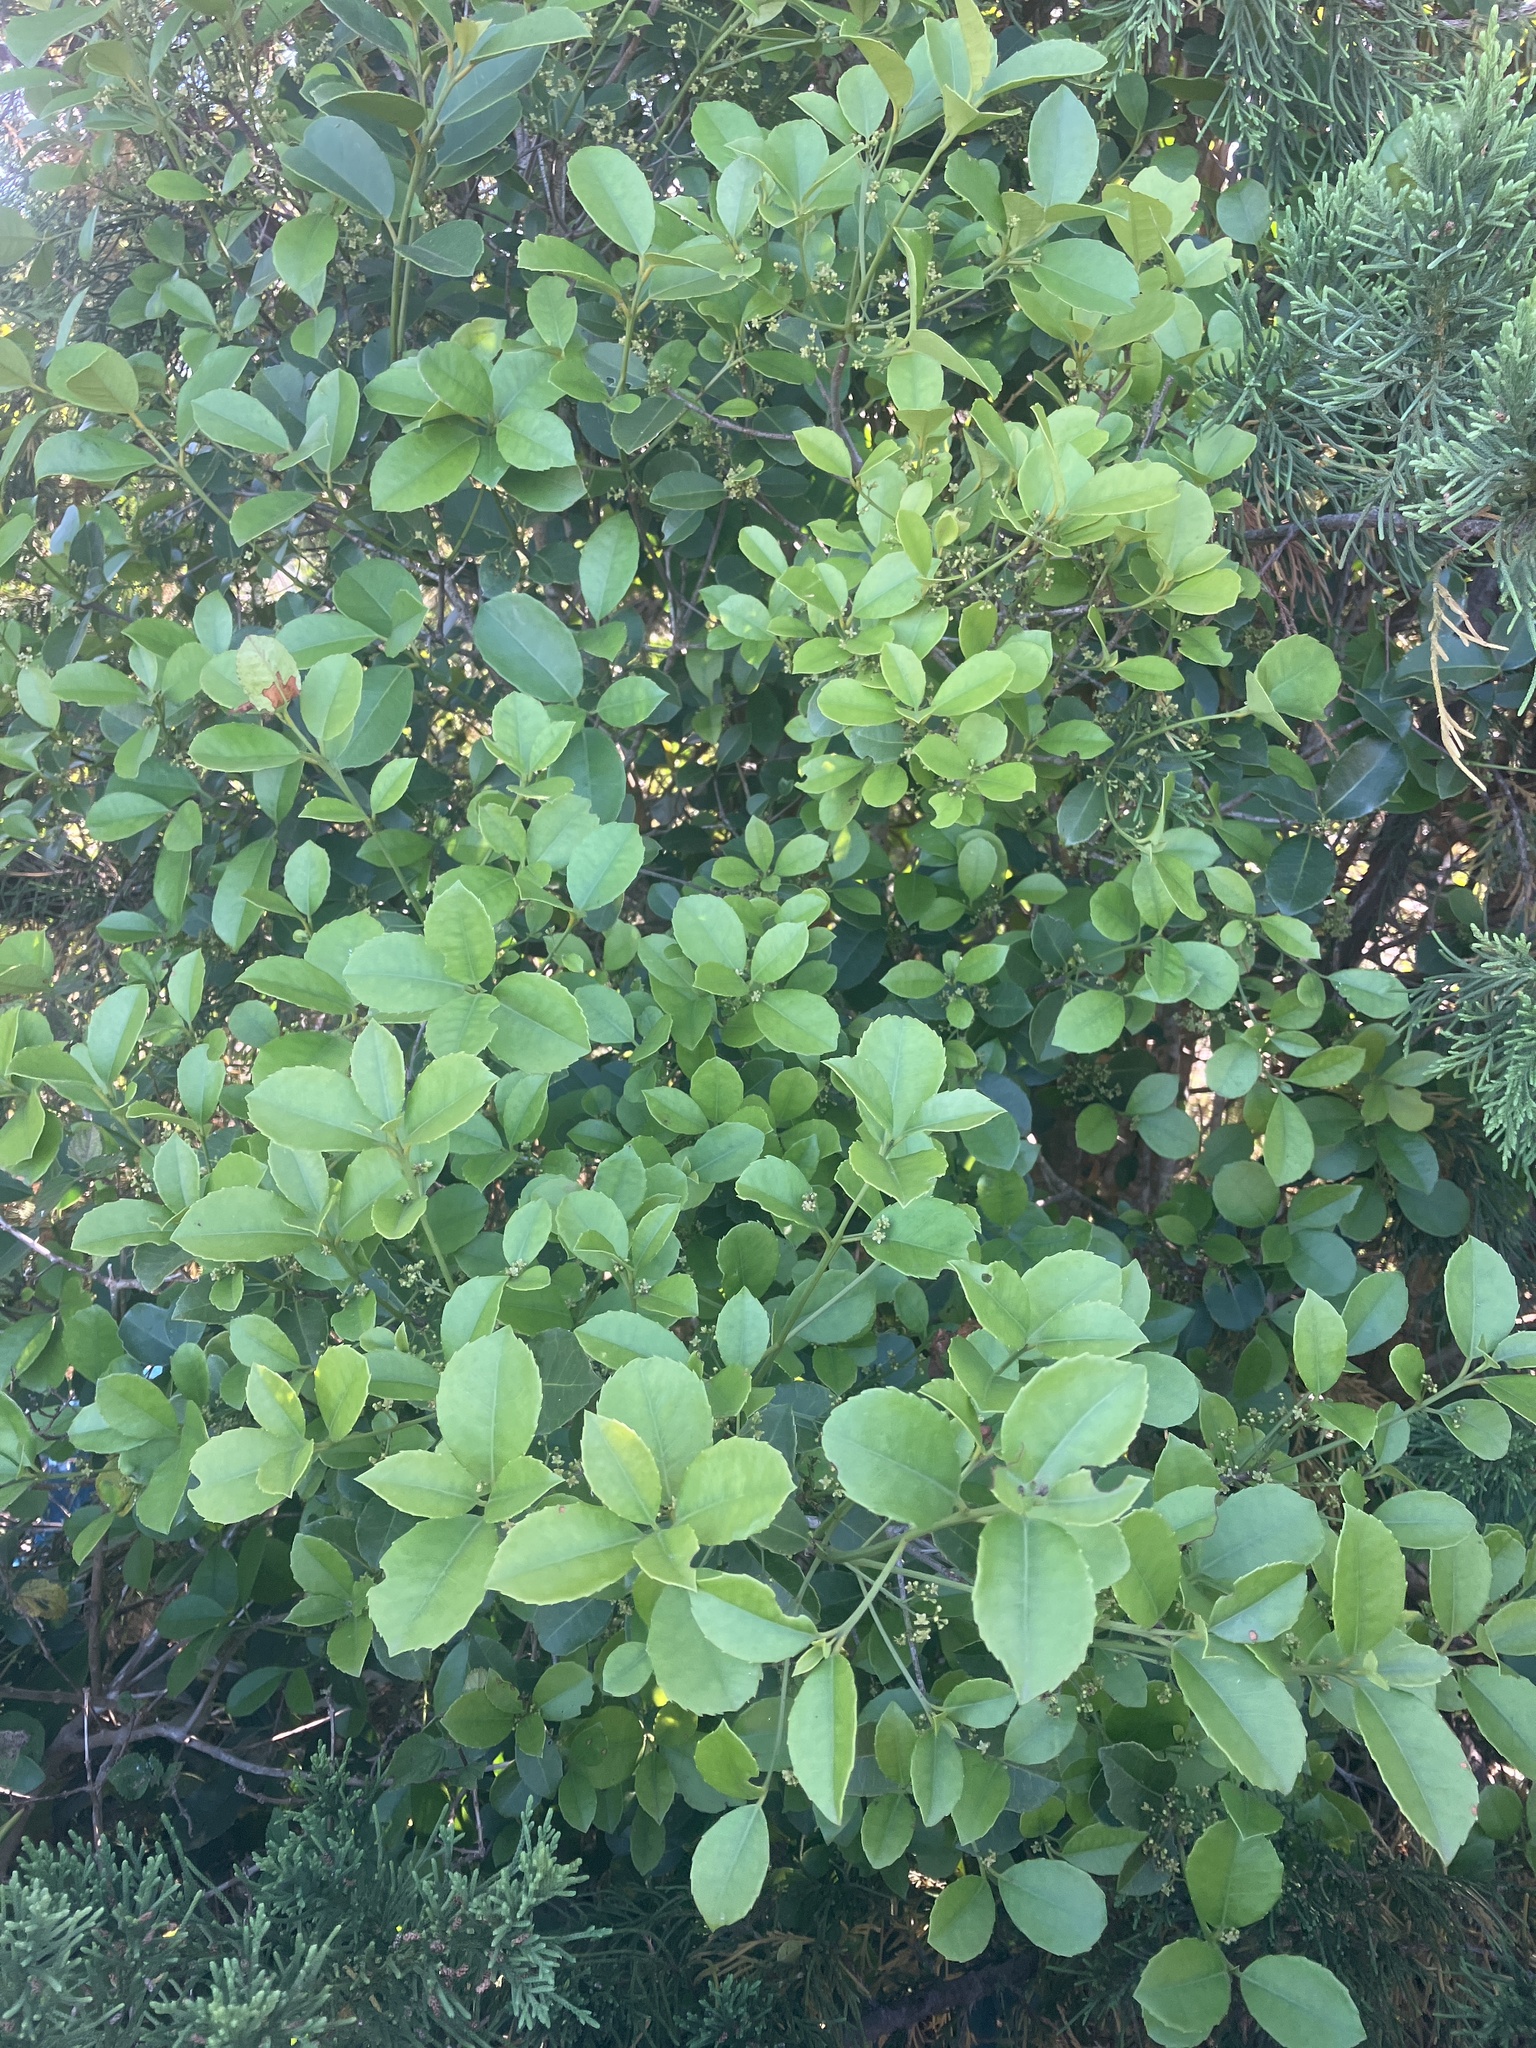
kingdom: Plantae
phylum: Tracheophyta
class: Magnoliopsida
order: Celastrales
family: Celastraceae
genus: Elaeodendron
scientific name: Elaeodendron croceum
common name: Saffron
